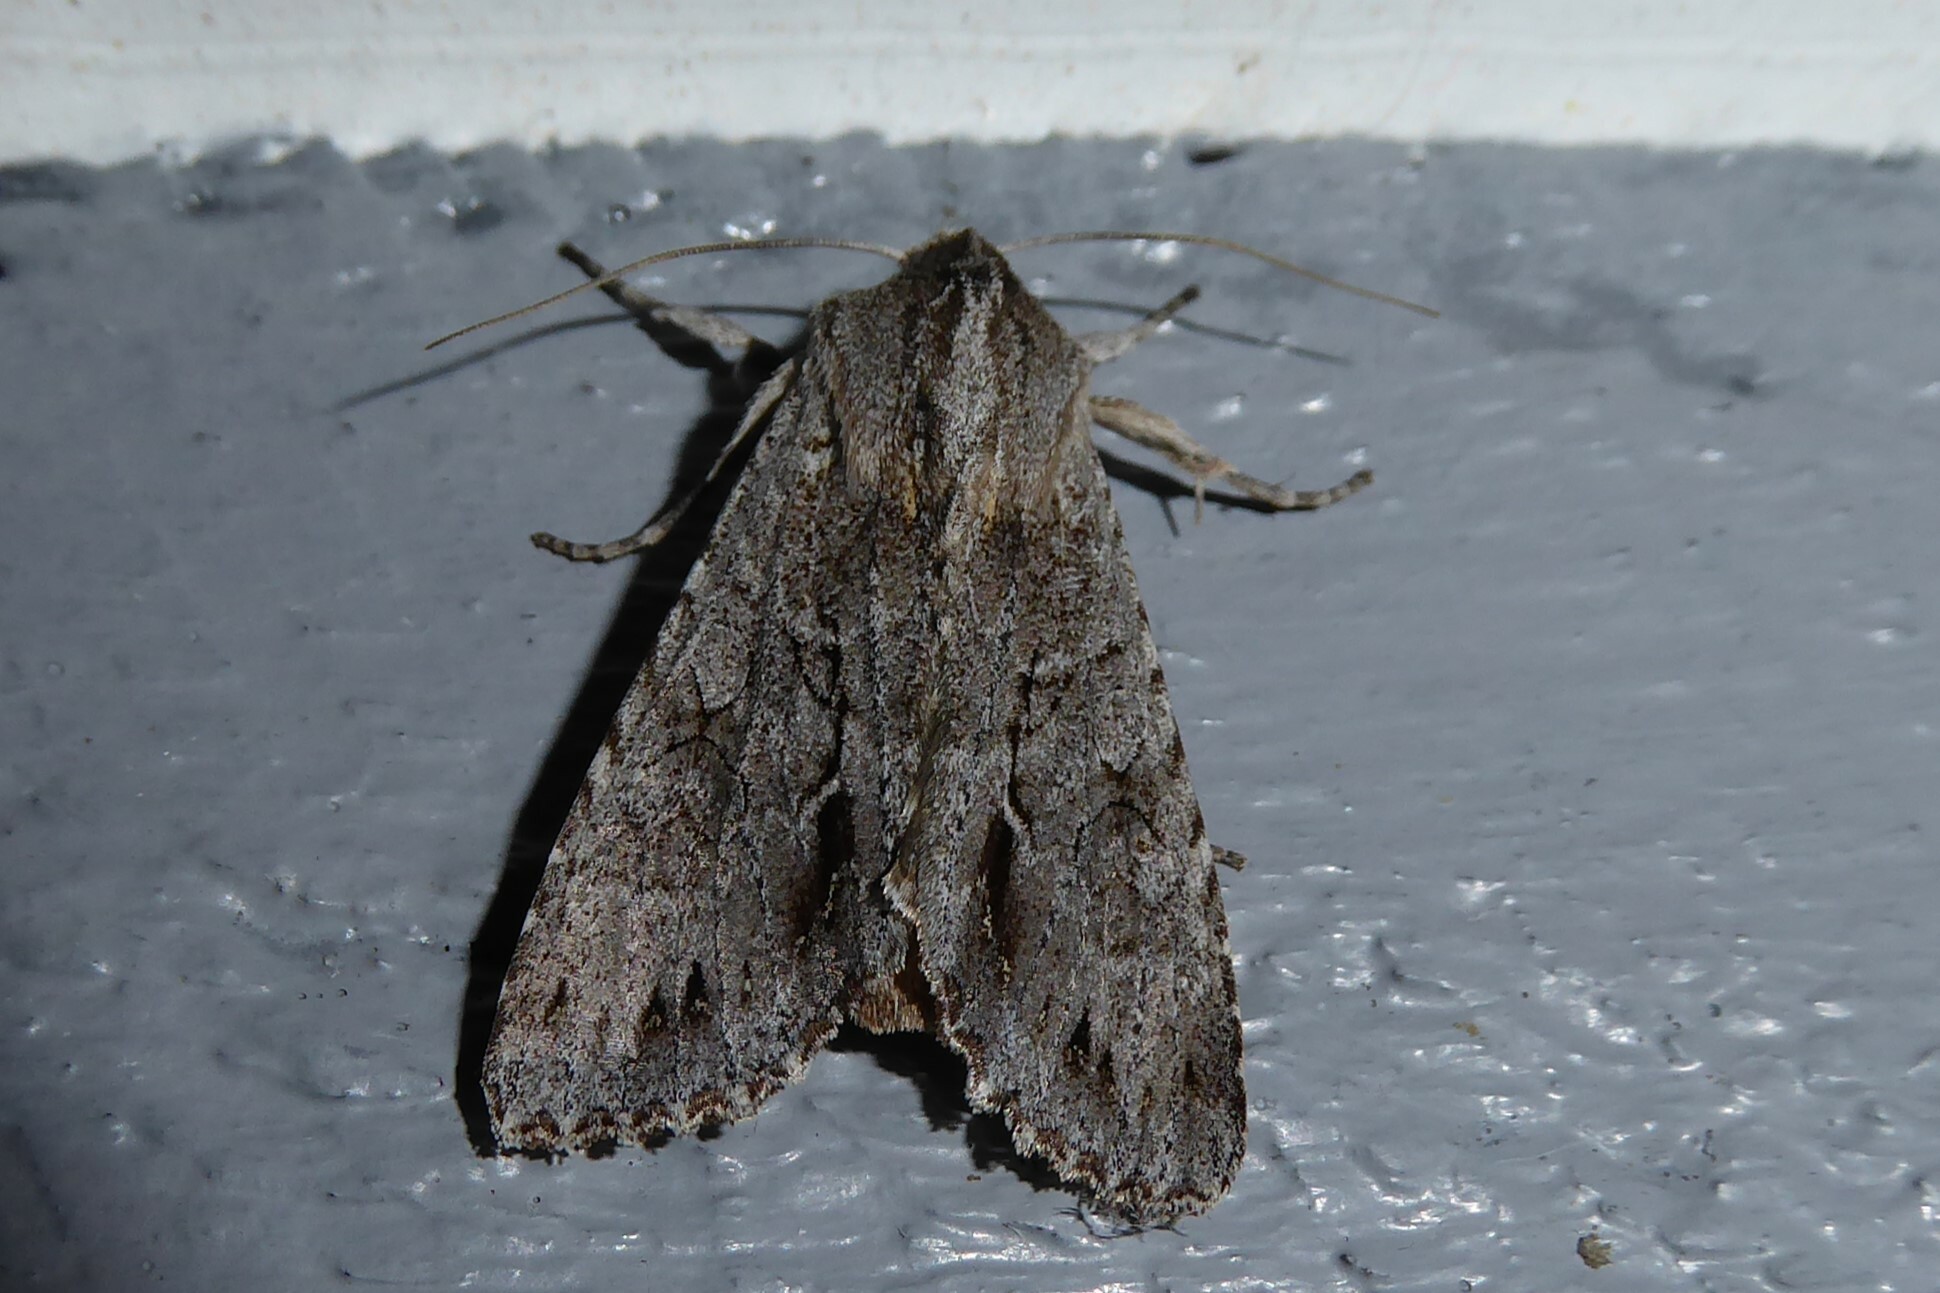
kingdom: Animalia
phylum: Arthropoda
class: Insecta
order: Lepidoptera
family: Noctuidae
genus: Ichneutica
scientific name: Ichneutica
